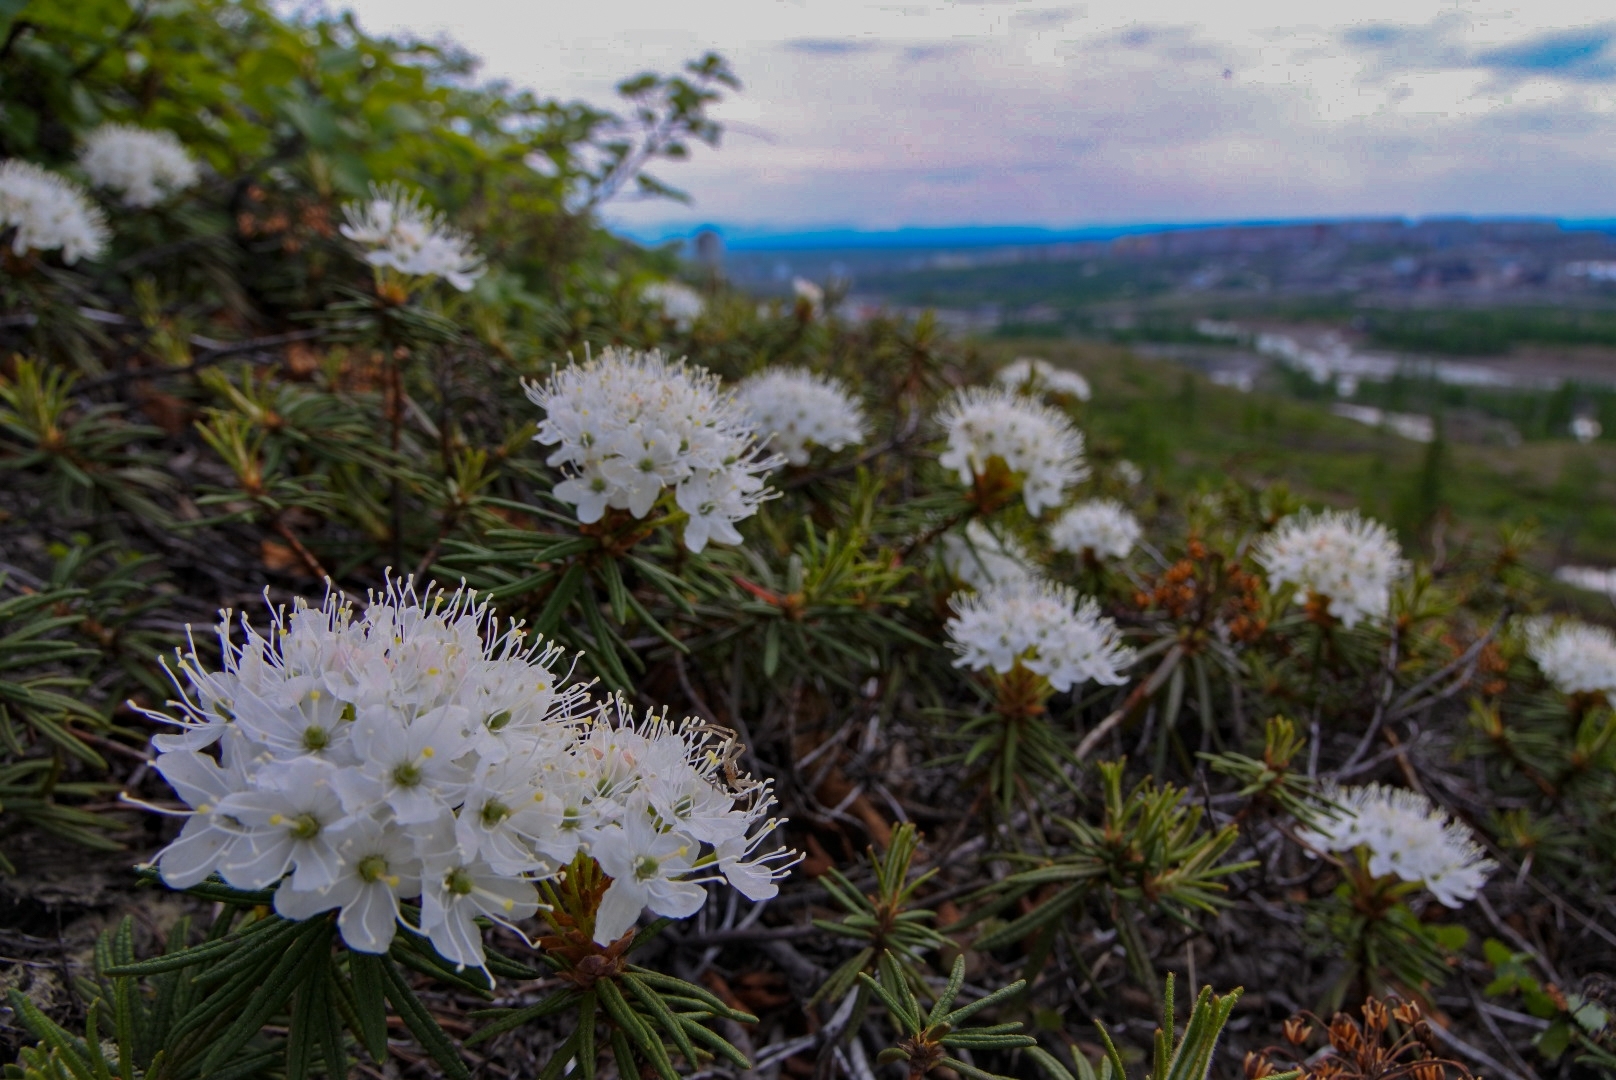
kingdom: Plantae
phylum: Tracheophyta
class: Magnoliopsida
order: Ericales
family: Ericaceae
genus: Rhododendron
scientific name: Rhododendron tomentosum
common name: Marsh labrador tea
